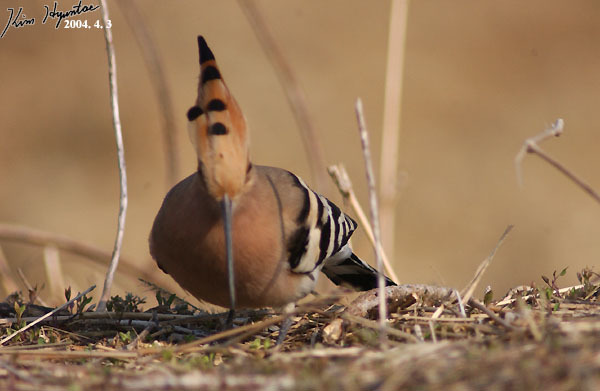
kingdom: Animalia
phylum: Chordata
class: Aves
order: Bucerotiformes
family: Upupidae
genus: Upupa
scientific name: Upupa epops
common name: Eurasian hoopoe
